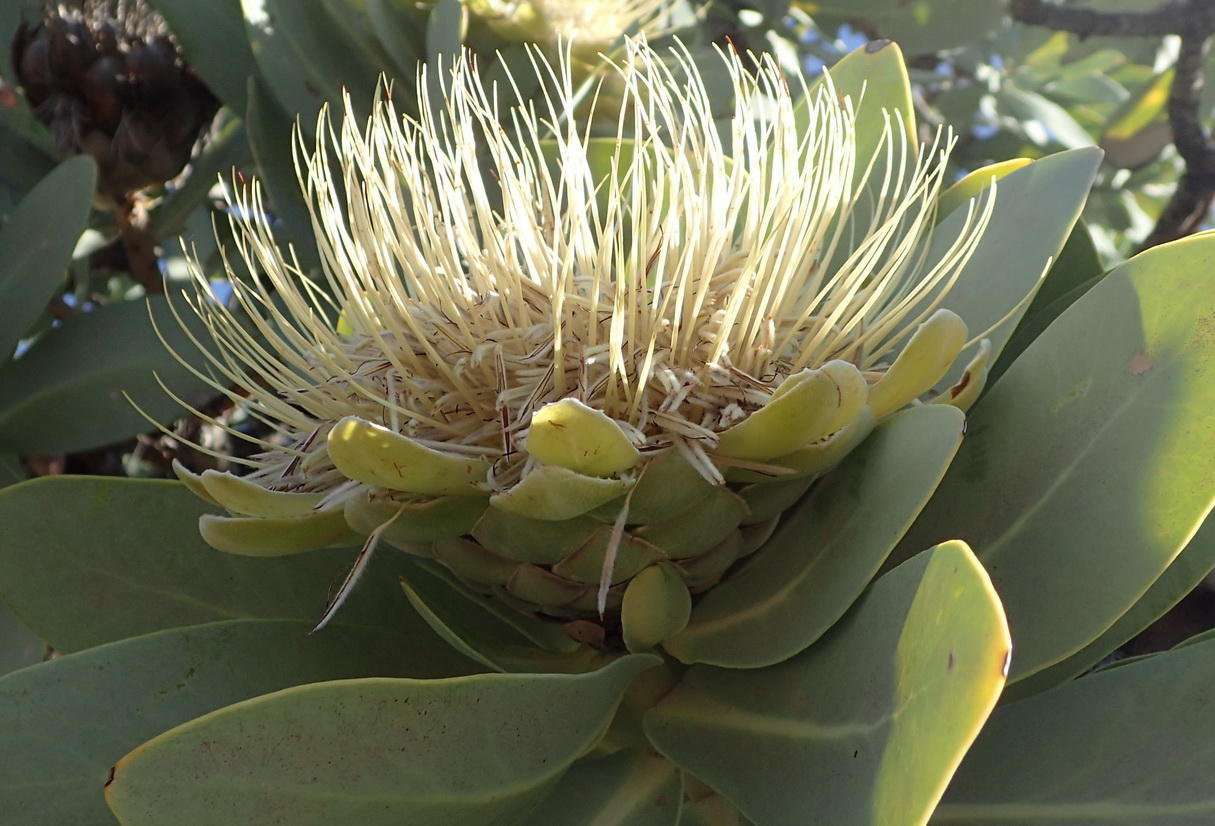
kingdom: Plantae
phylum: Tracheophyta
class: Magnoliopsida
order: Proteales
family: Proteaceae
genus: Protea
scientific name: Protea nitida
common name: Tree protea
